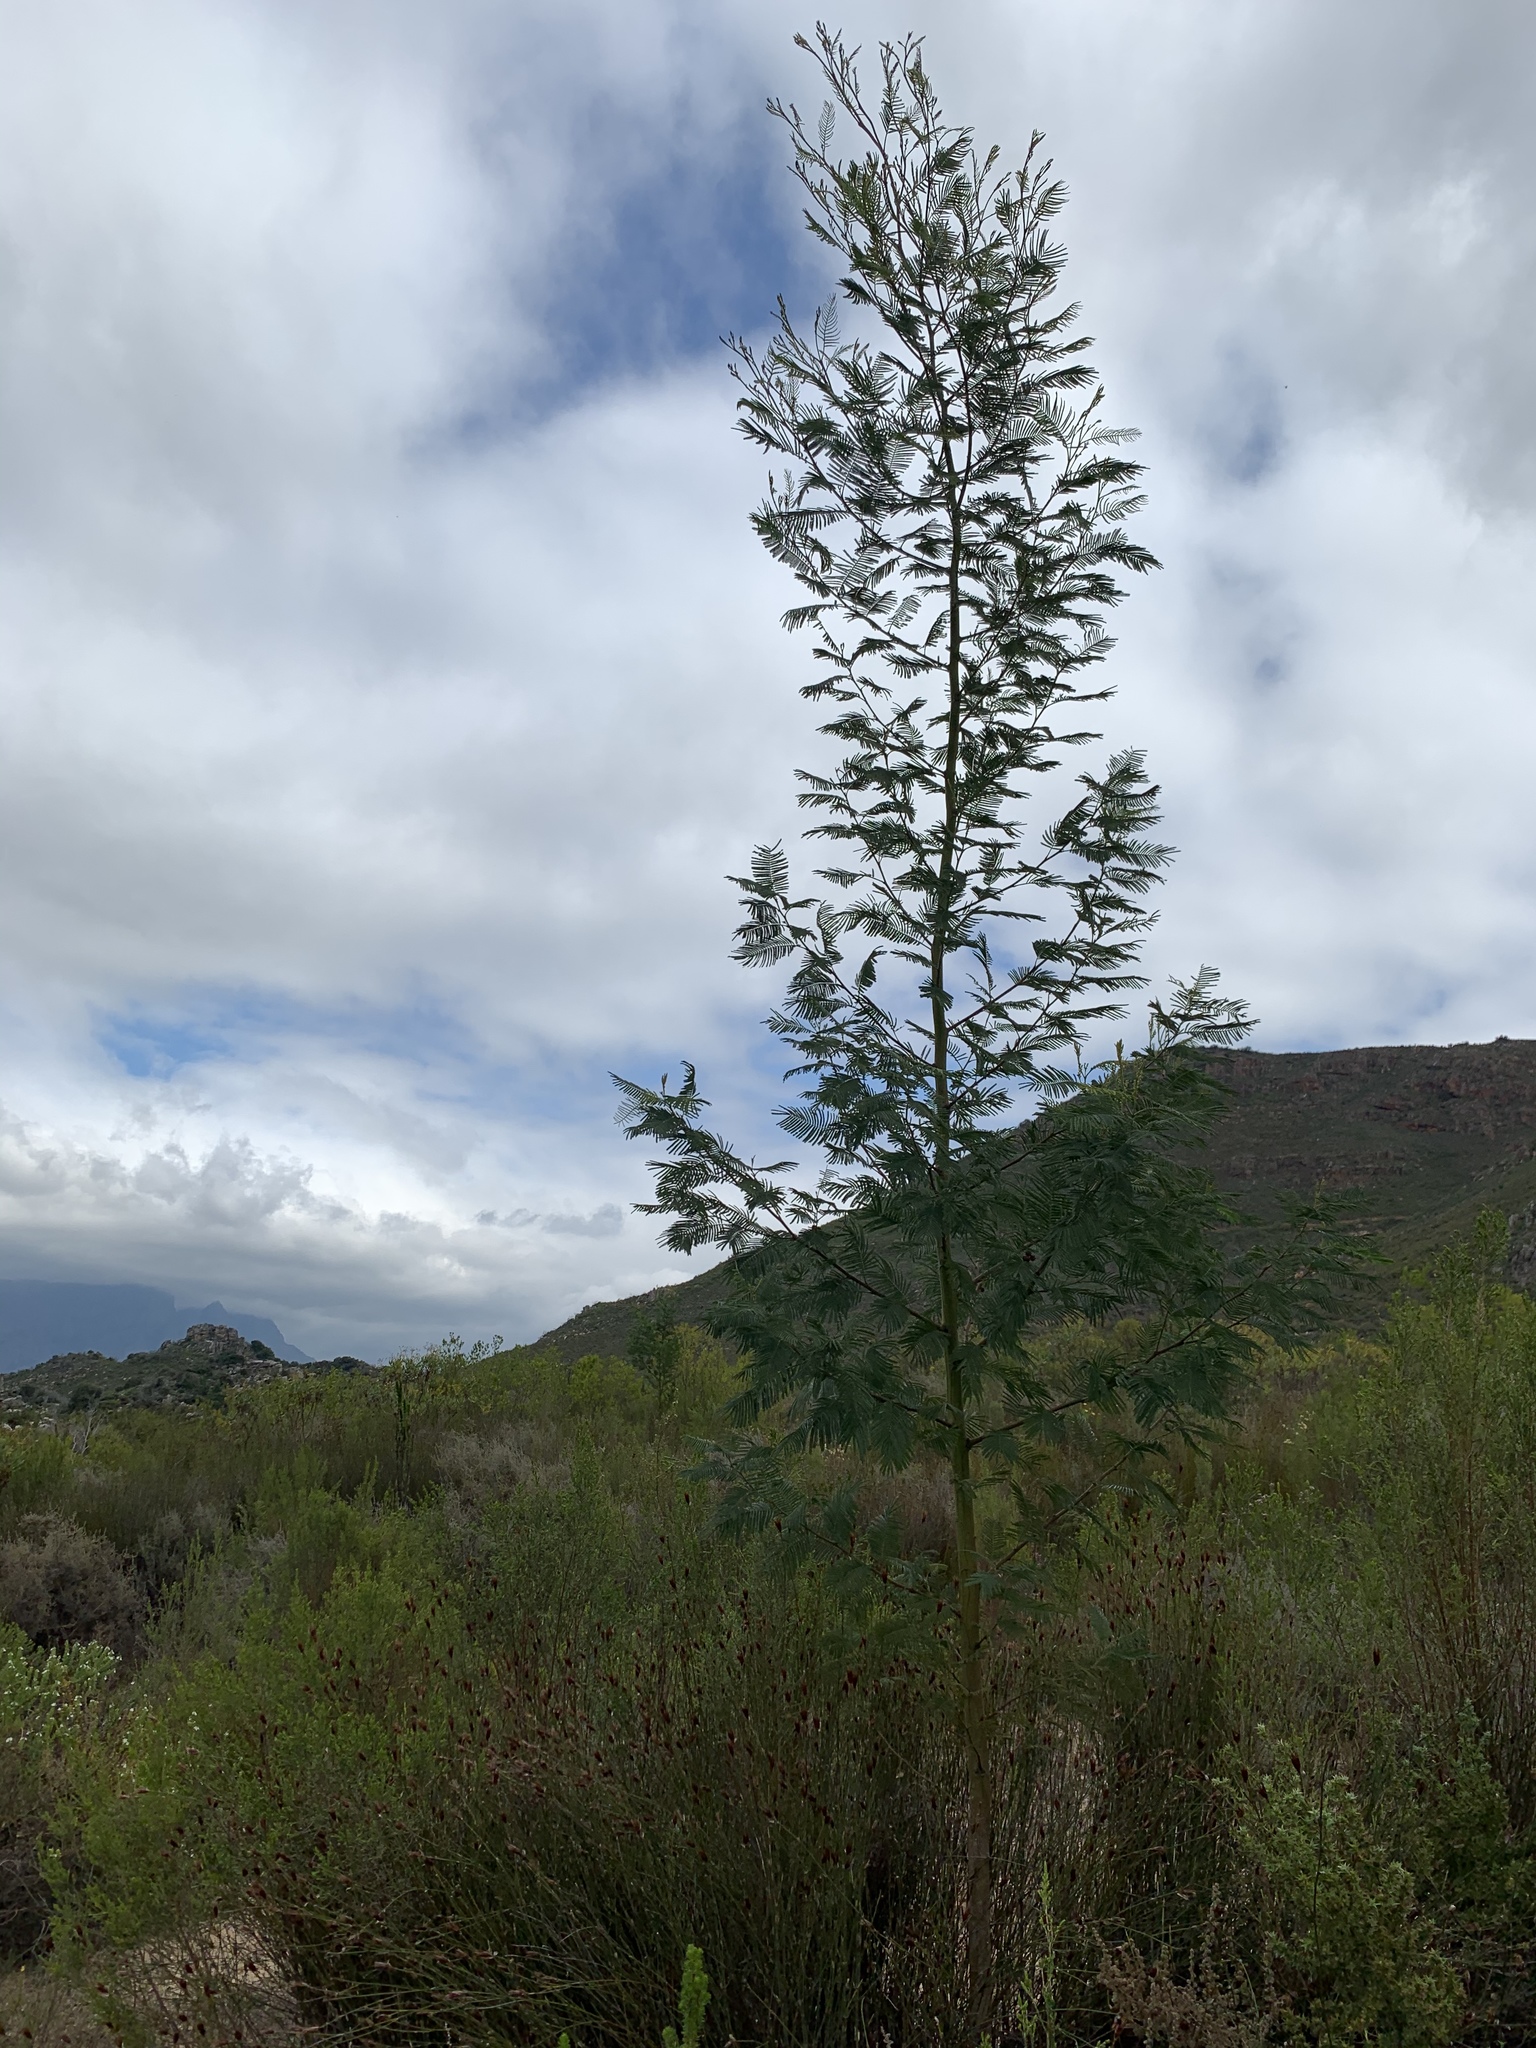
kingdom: Plantae
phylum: Tracheophyta
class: Magnoliopsida
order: Fabales
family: Fabaceae
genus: Acacia
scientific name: Acacia mearnsii
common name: Black wattle
